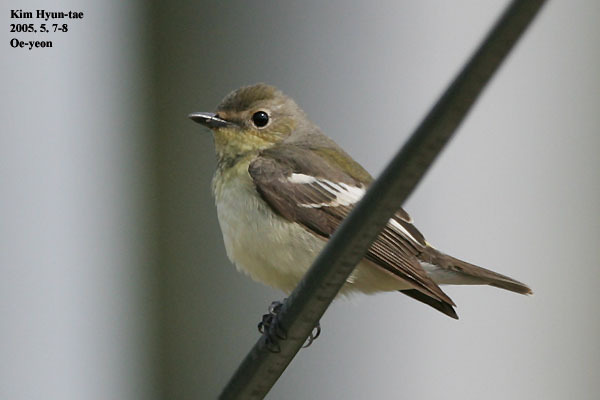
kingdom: Animalia
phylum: Chordata
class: Aves
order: Passeriformes
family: Muscicapidae
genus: Ficedula
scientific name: Ficedula zanthopygia
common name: Yellow-rumped flycatcher
